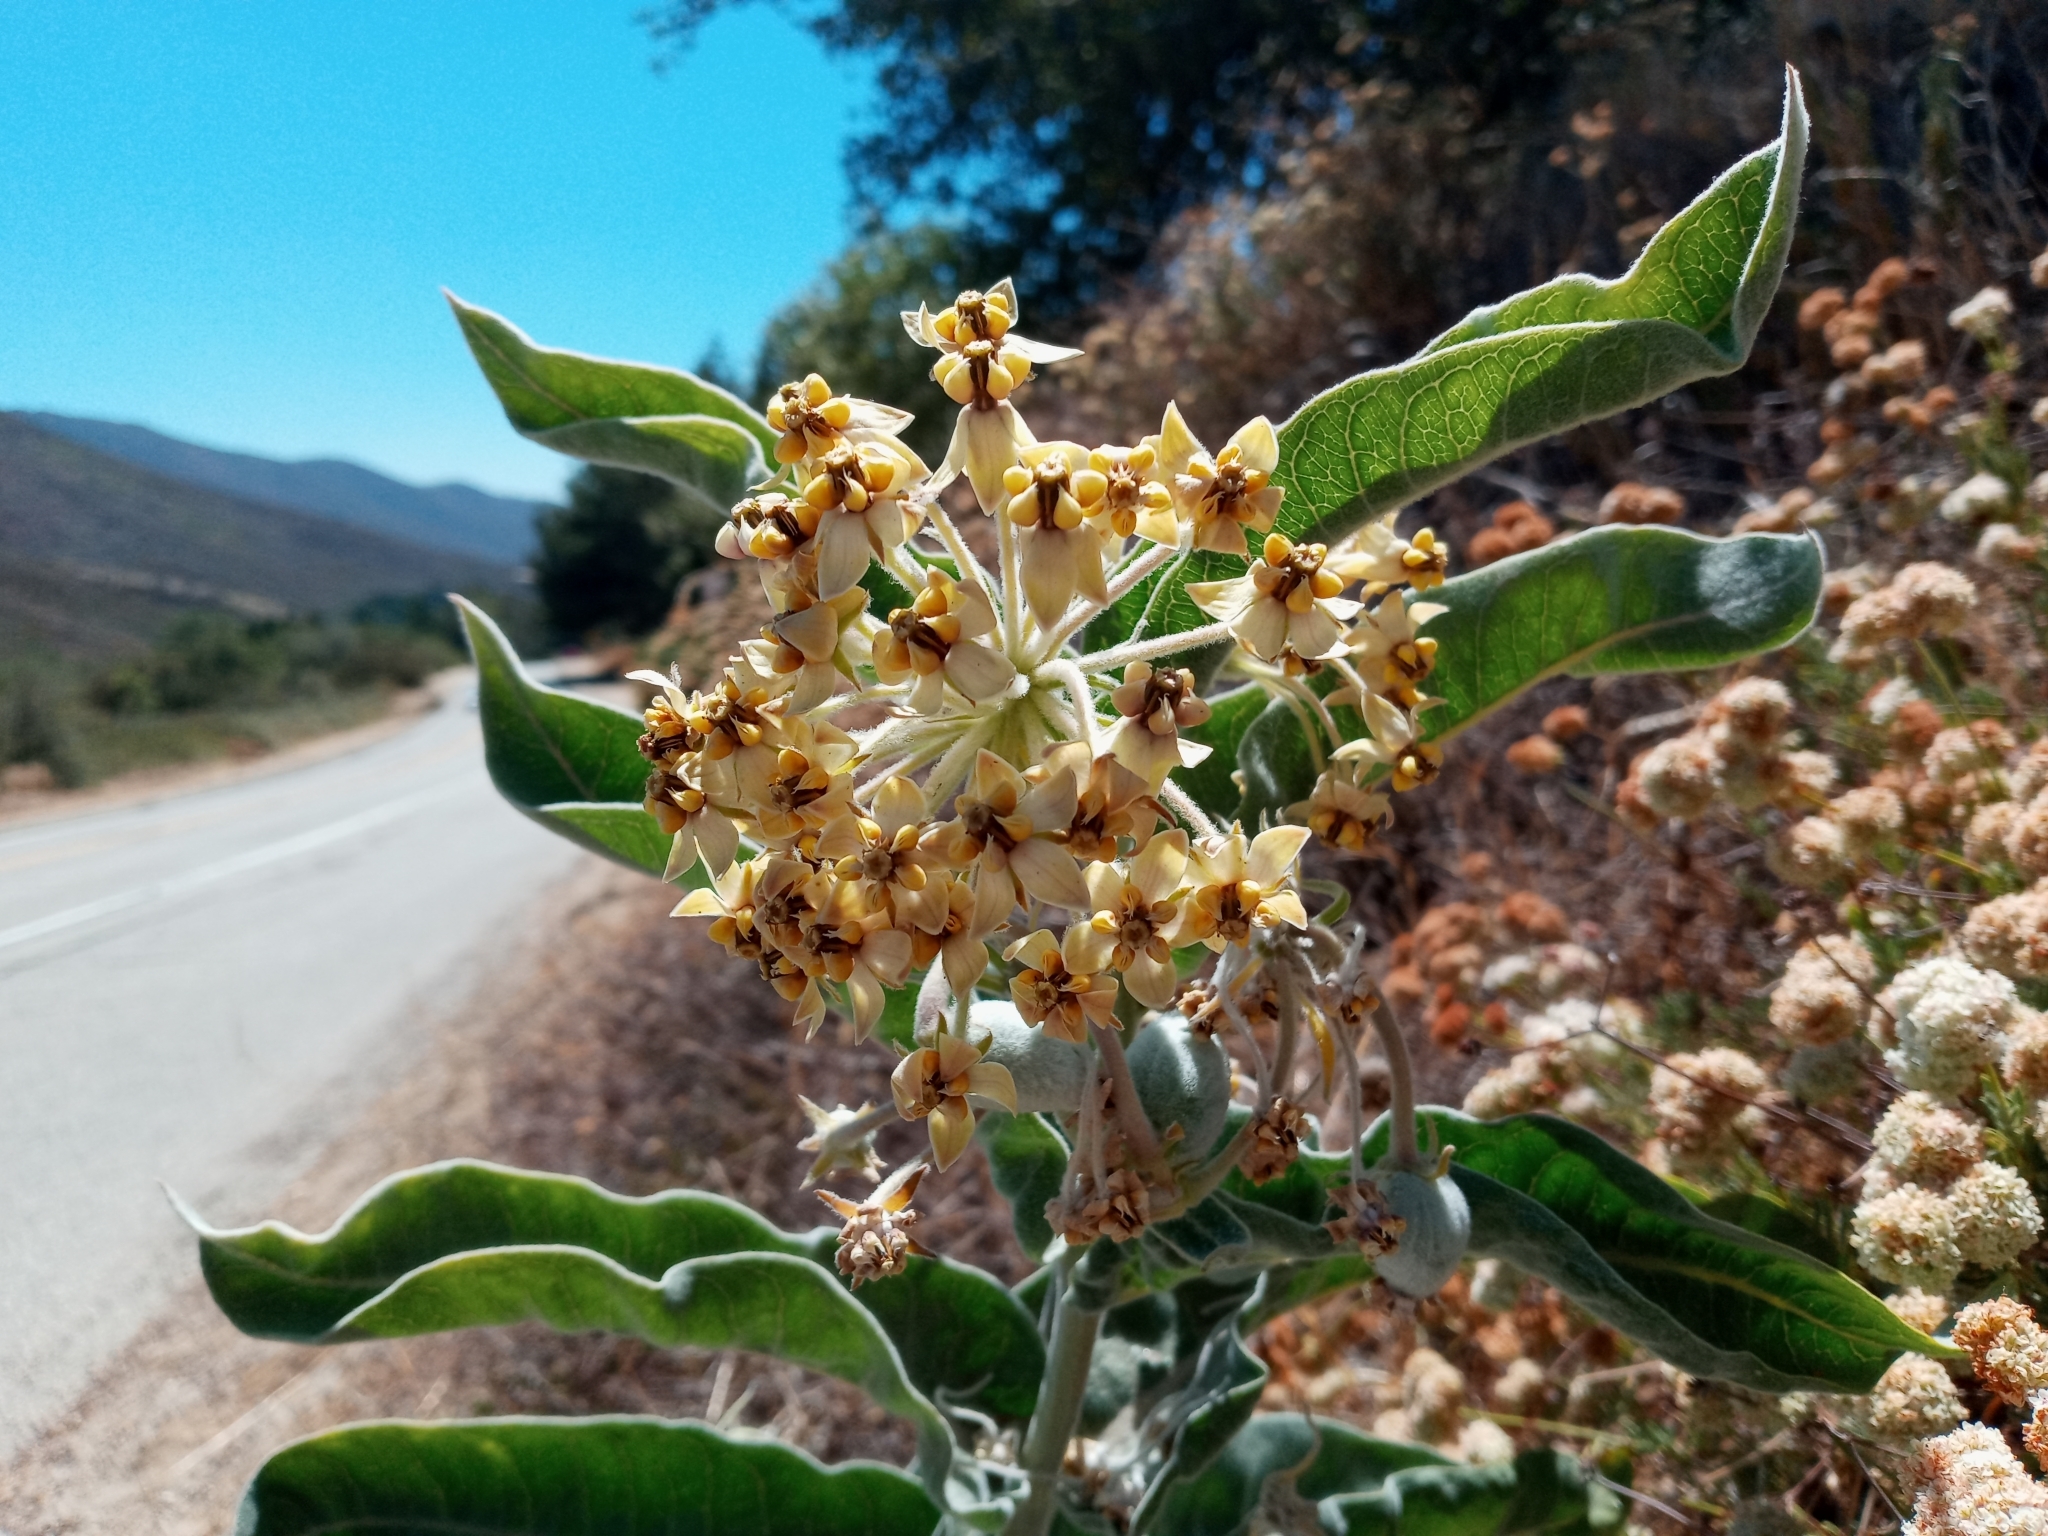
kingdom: Plantae
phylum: Tracheophyta
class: Magnoliopsida
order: Gentianales
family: Apocynaceae
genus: Asclepias
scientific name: Asclepias eriocarpa
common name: Indian milkweed
